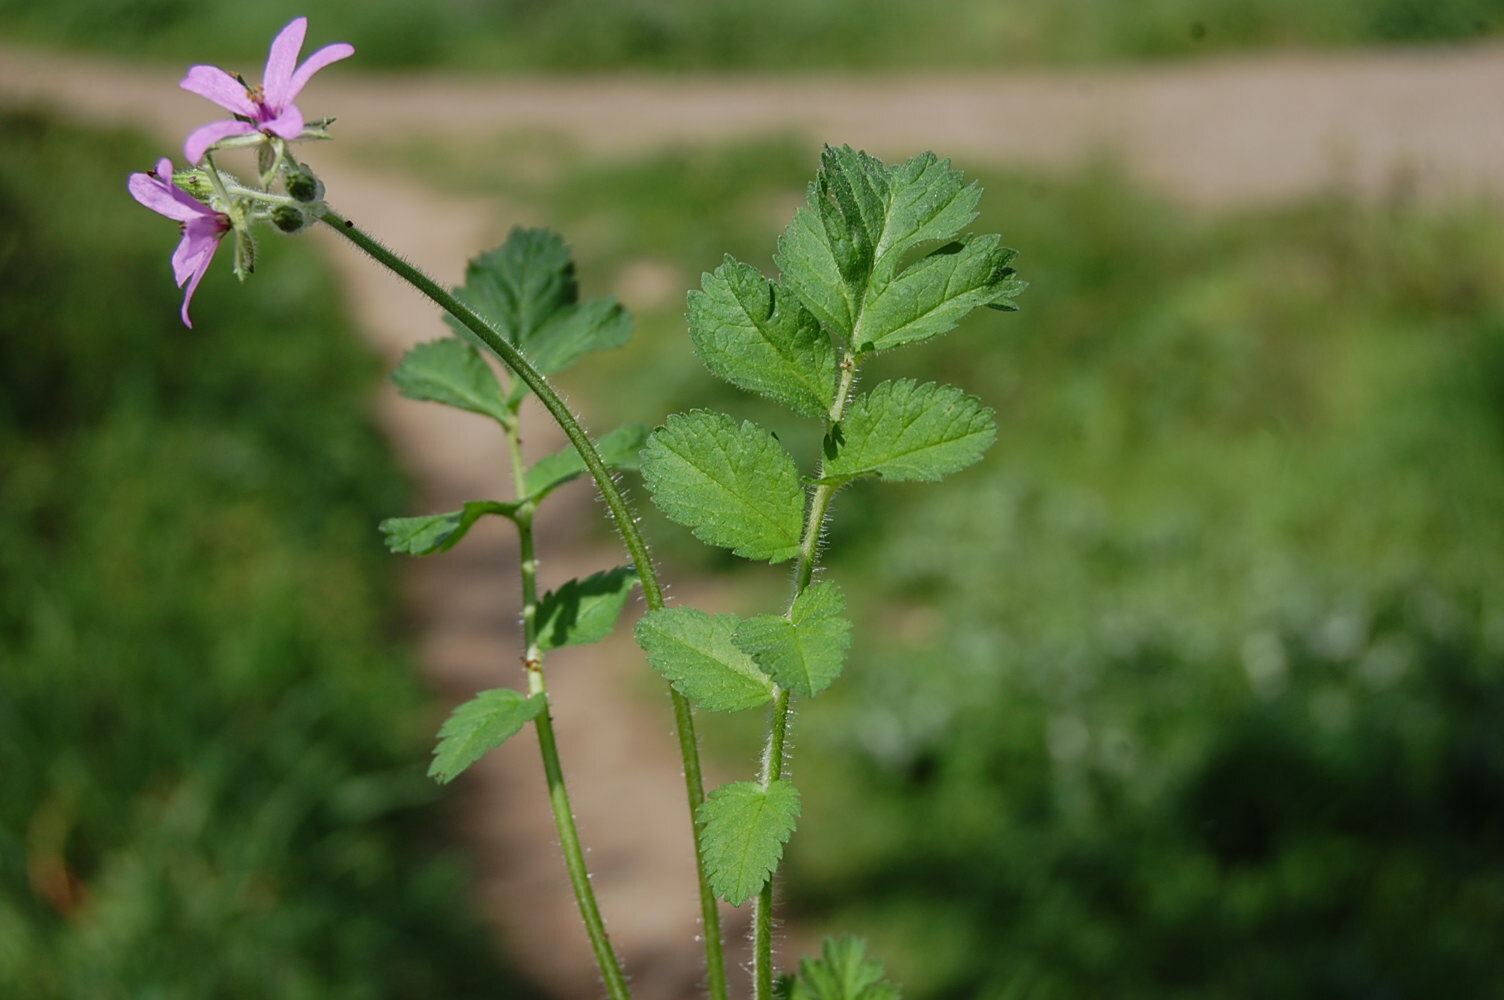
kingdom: Plantae
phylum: Tracheophyta
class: Magnoliopsida
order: Geraniales
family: Geraniaceae
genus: Erodium
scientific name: Erodium moschatum
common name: Musk stork's-bill
